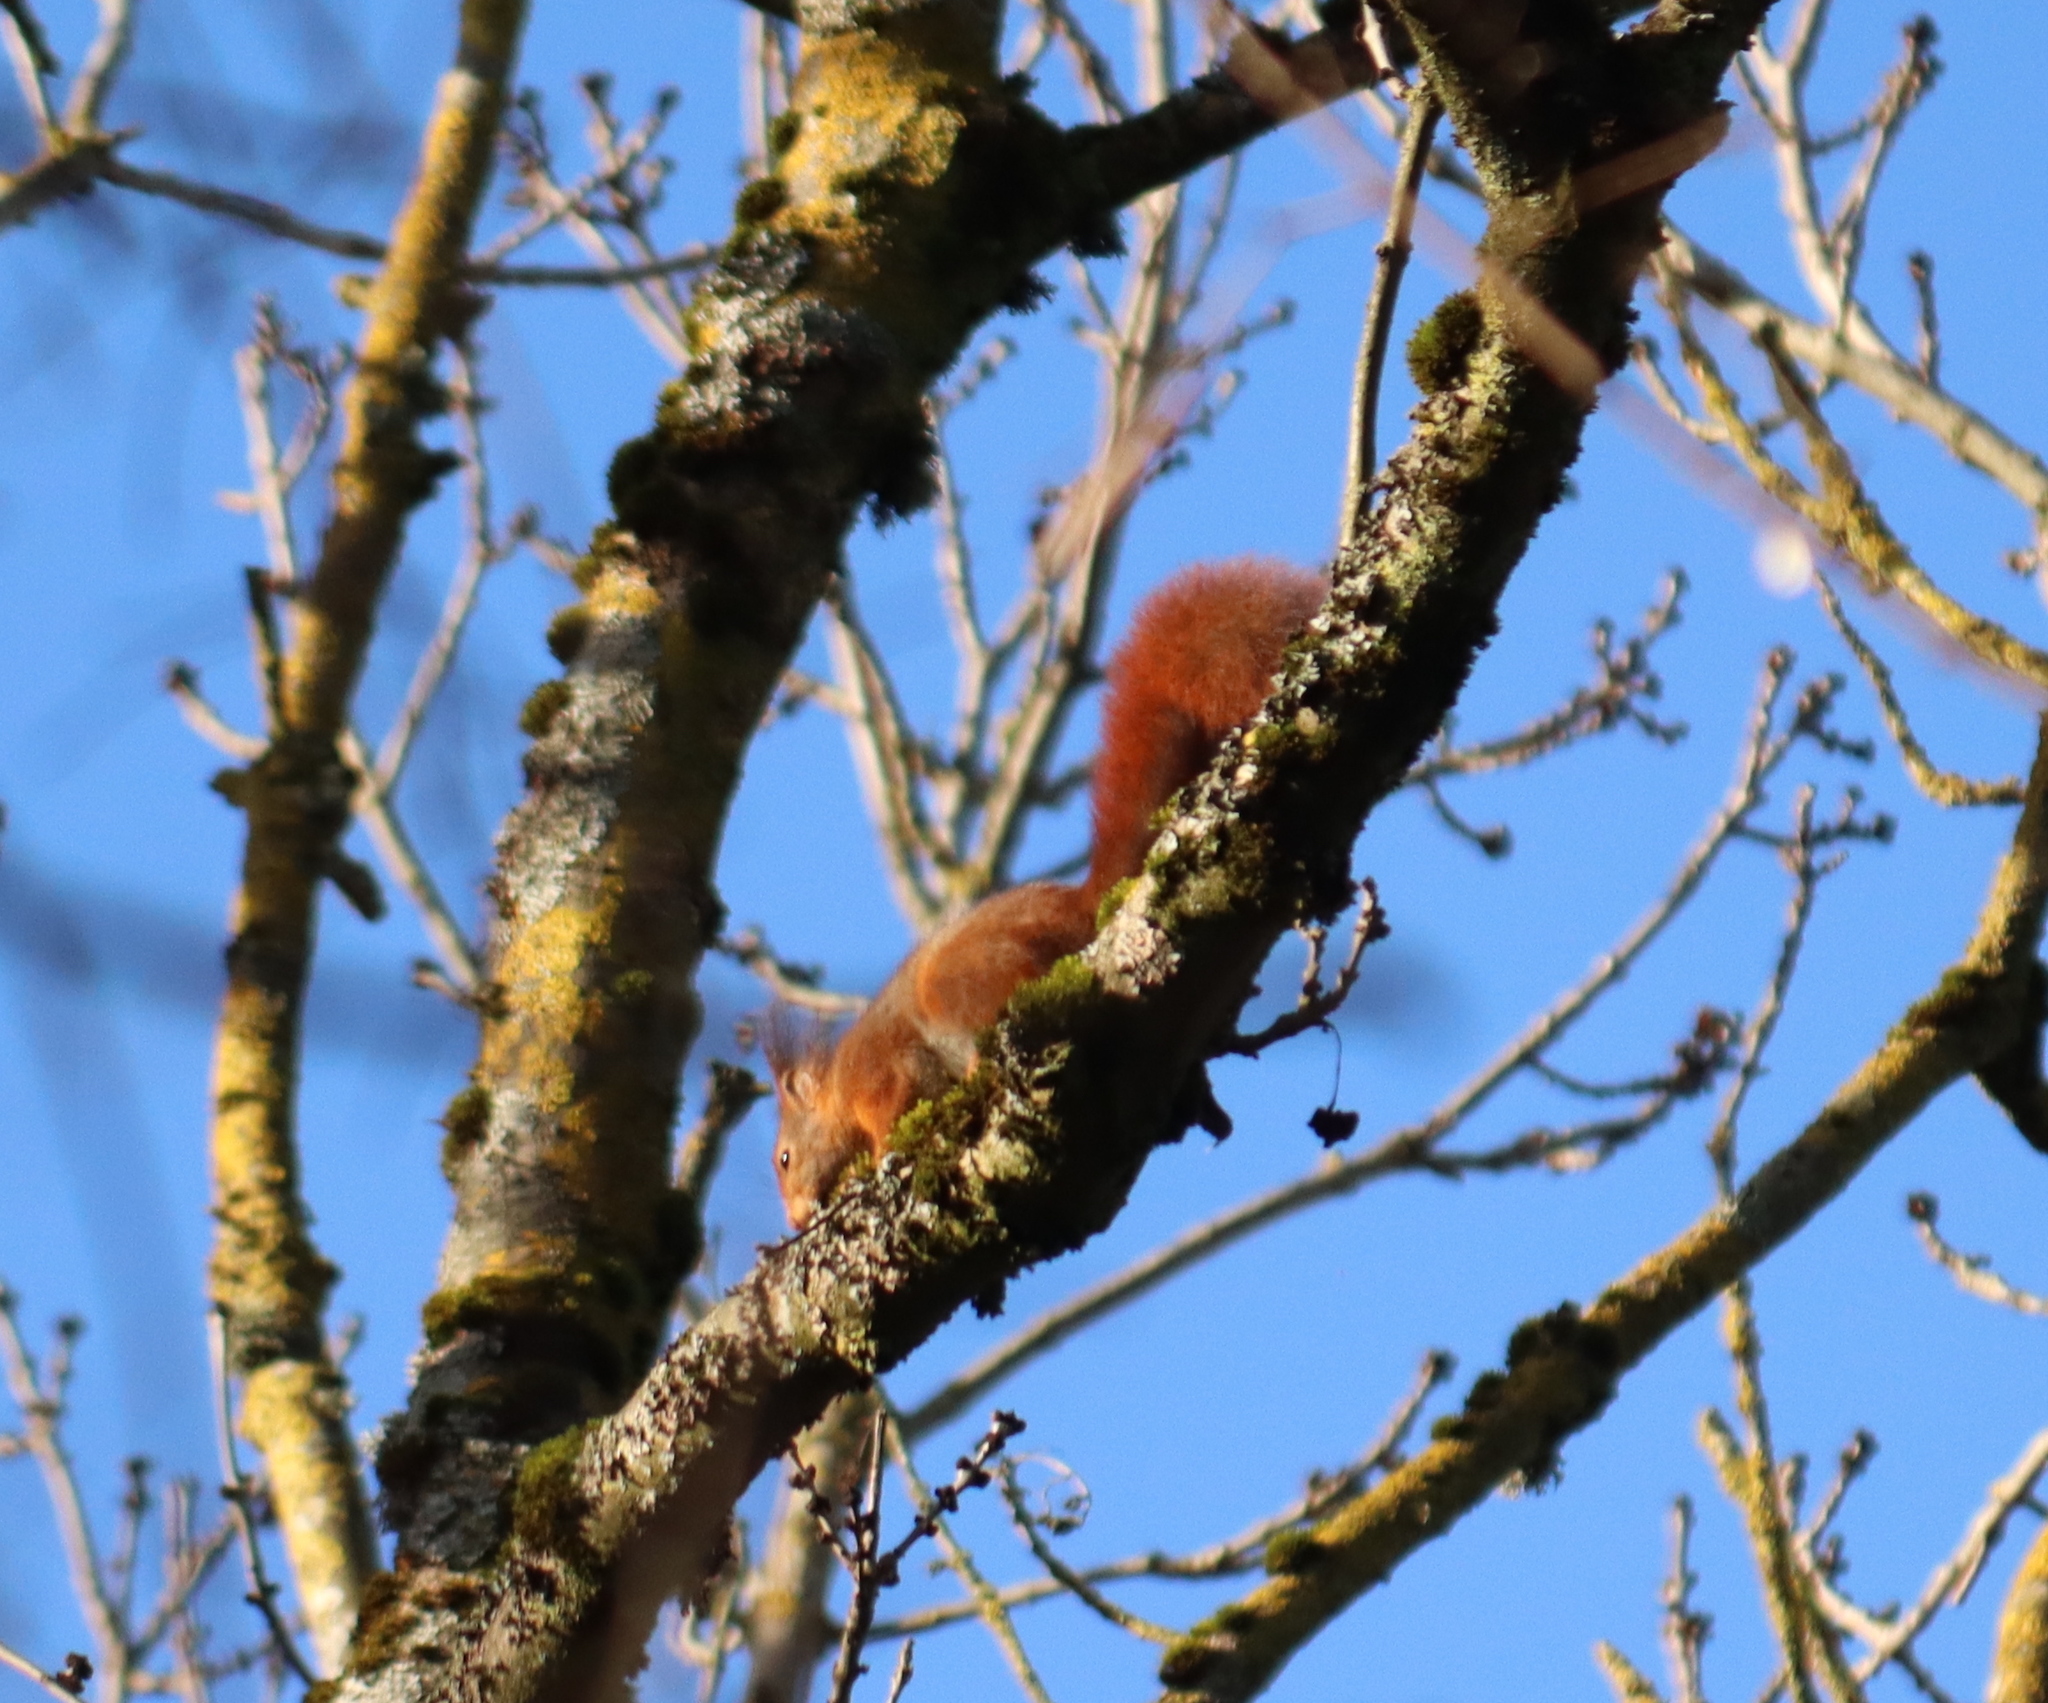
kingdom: Animalia
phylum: Chordata
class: Mammalia
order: Rodentia
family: Sciuridae
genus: Sciurus
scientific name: Sciurus vulgaris
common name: Eurasian red squirrel
